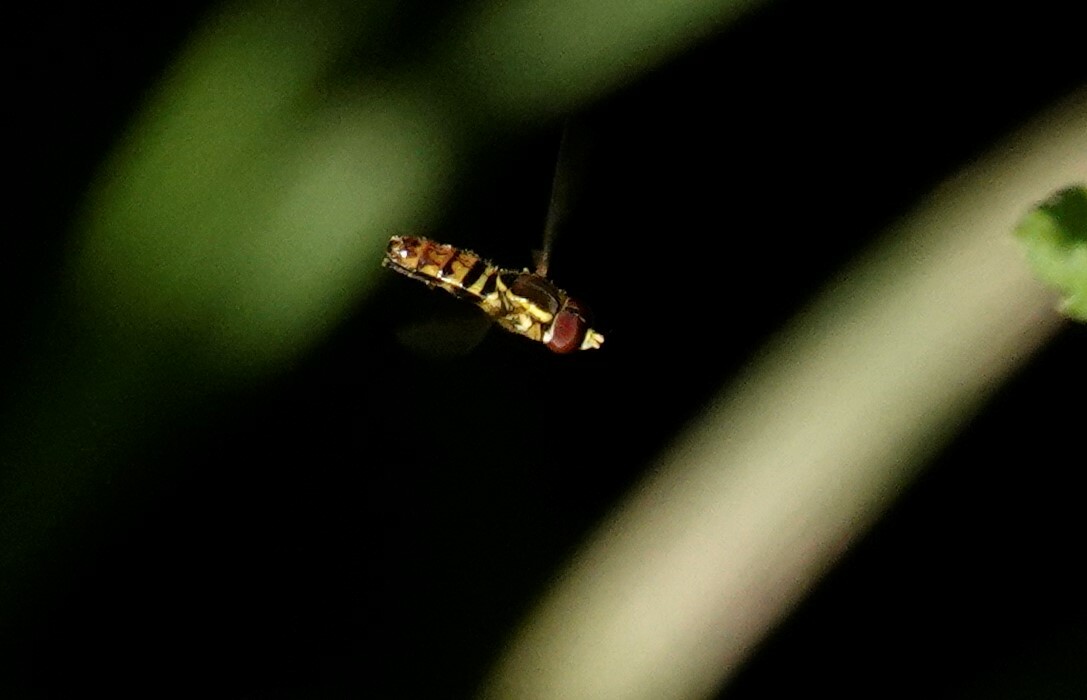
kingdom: Animalia
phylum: Arthropoda
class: Insecta
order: Diptera
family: Syrphidae
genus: Toxomerus
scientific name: Toxomerus geminatus
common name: Eastern calligrapher
